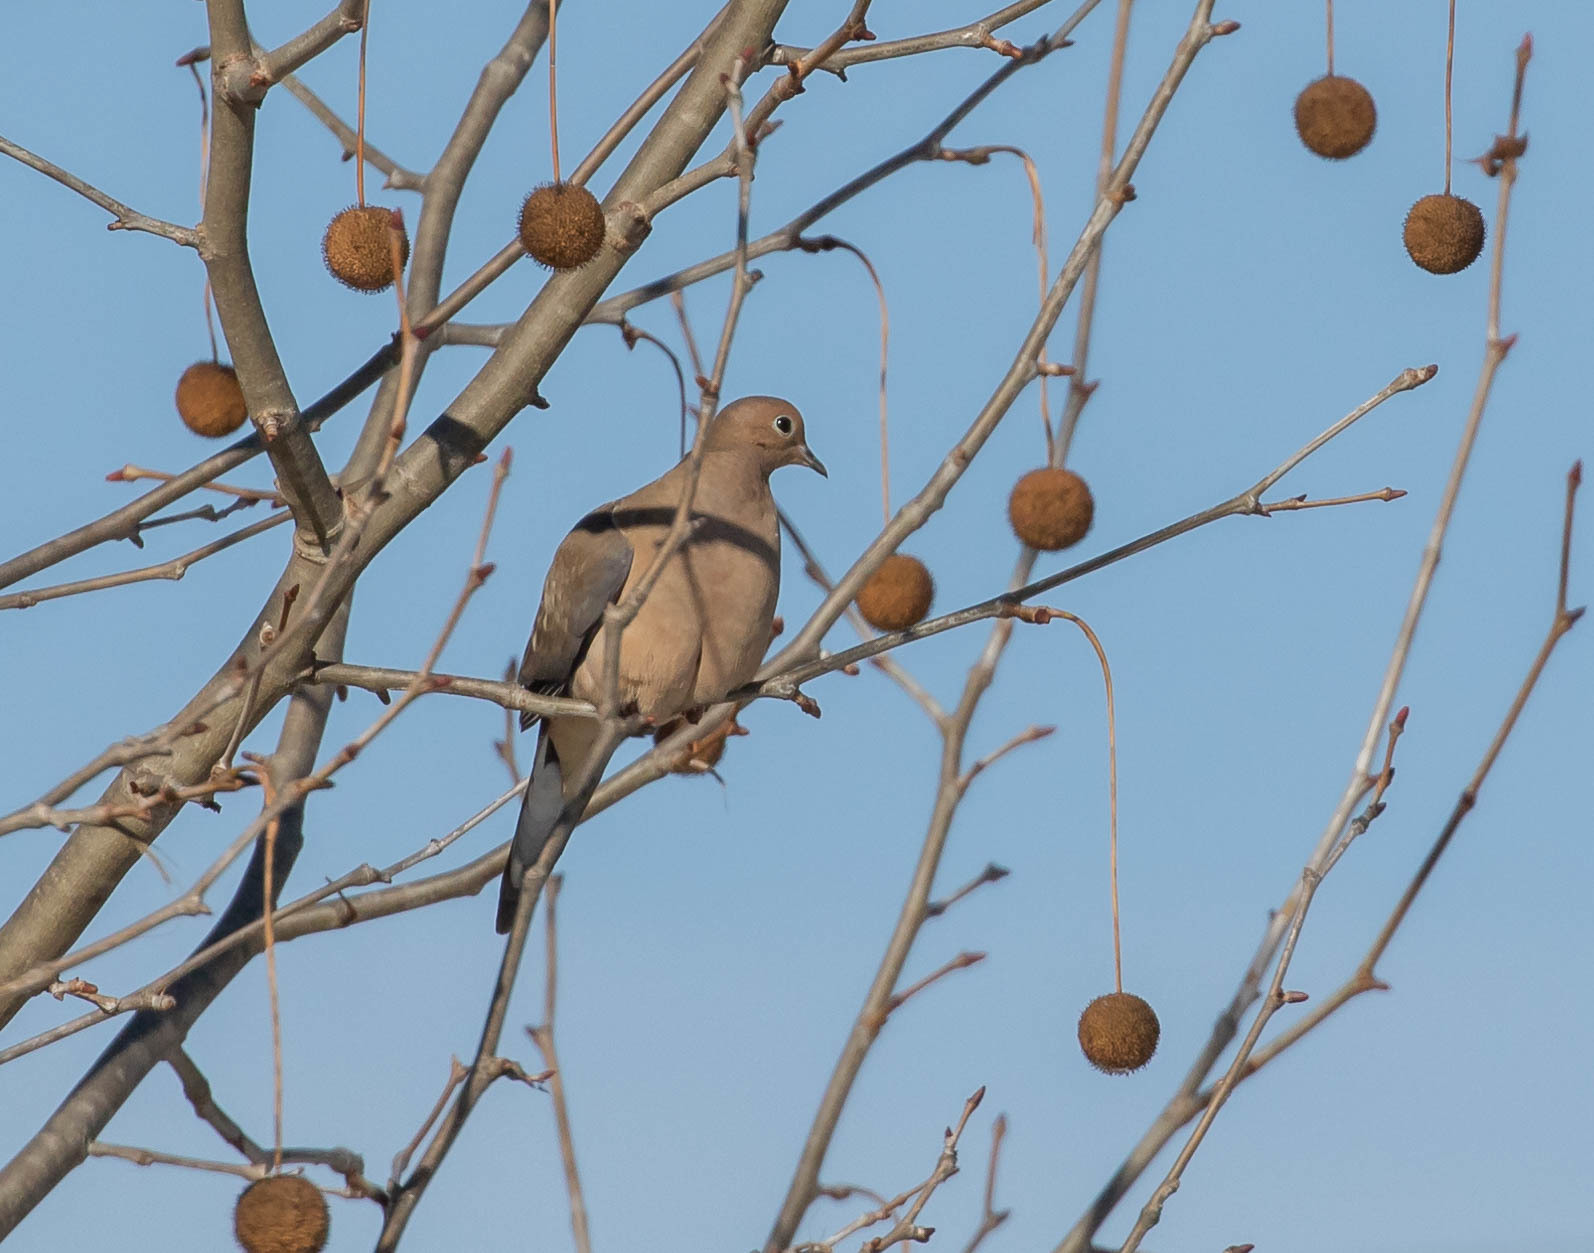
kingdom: Animalia
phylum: Chordata
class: Aves
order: Columbiformes
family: Columbidae
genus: Zenaida
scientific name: Zenaida macroura
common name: Mourning dove
